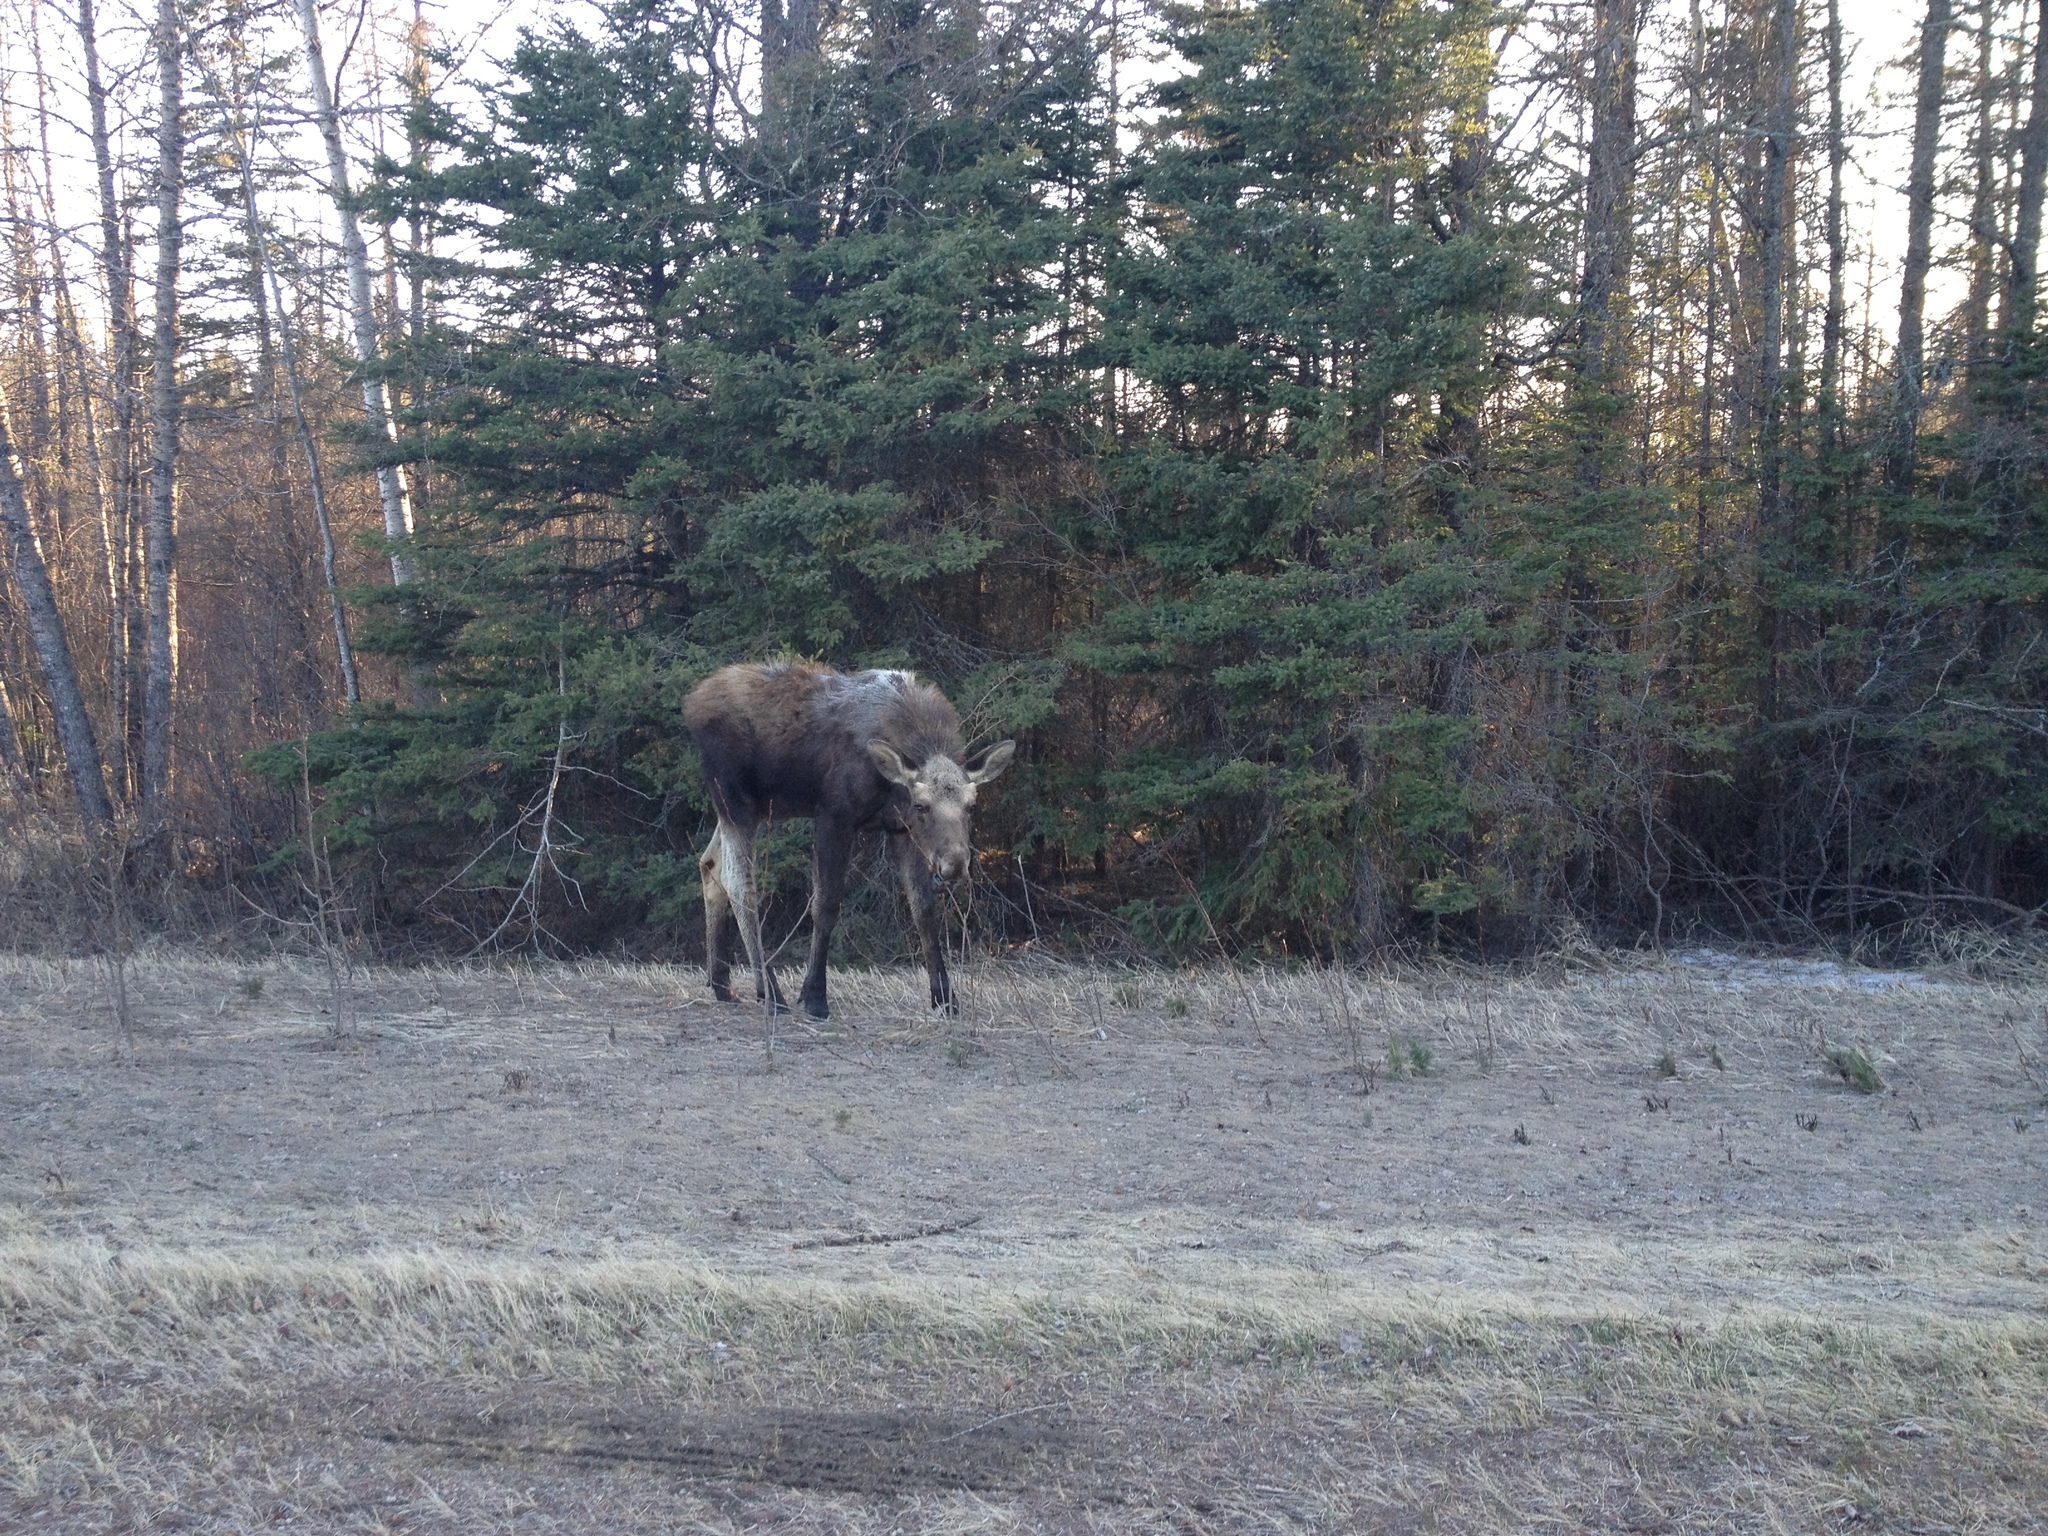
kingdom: Animalia
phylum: Chordata
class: Mammalia
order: Artiodactyla
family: Cervidae
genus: Alces
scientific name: Alces alces
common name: Moose
